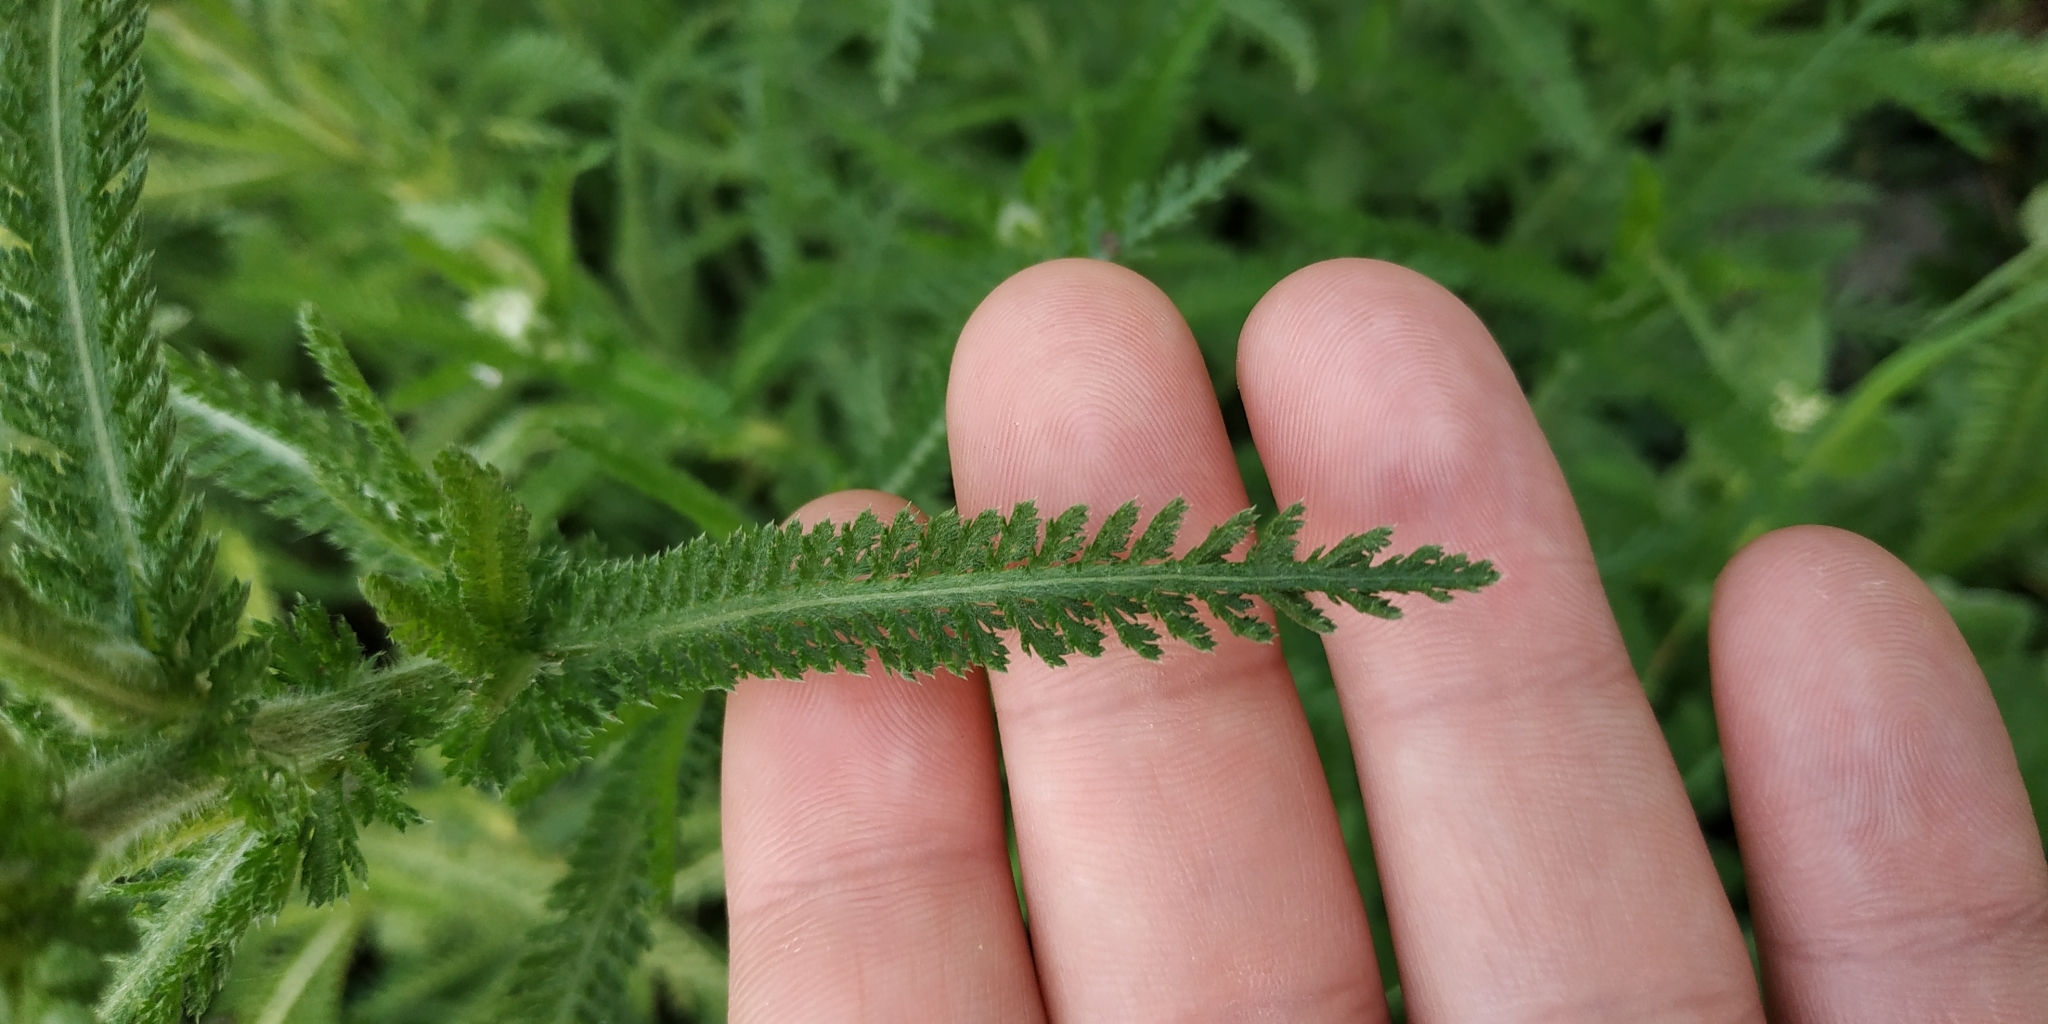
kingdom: Plantae
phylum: Tracheophyta
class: Magnoliopsida
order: Asterales
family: Asteraceae
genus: Achillea
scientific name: Achillea setacea
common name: Bristly yarrow
